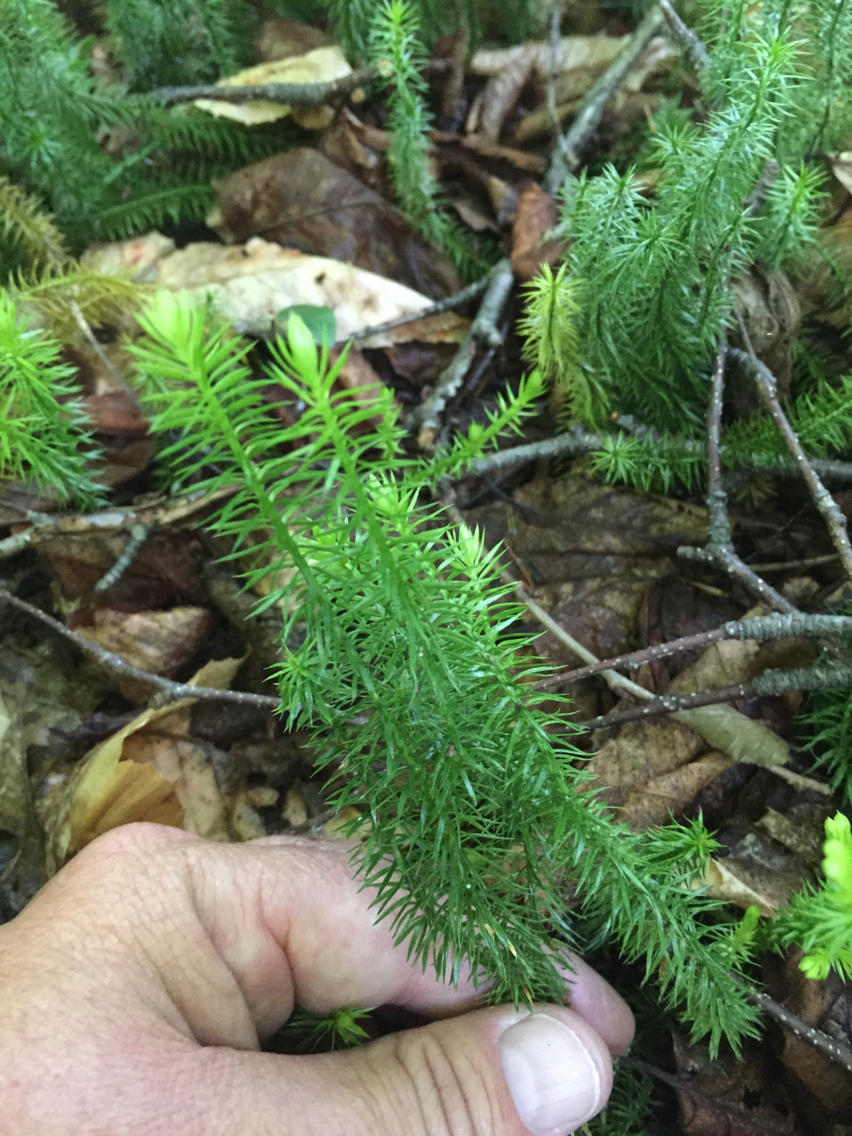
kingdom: Plantae
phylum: Tracheophyta
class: Lycopodiopsida
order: Lycopodiales
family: Lycopodiaceae
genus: Spinulum
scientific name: Spinulum annotinum
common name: Interrupted club-moss
